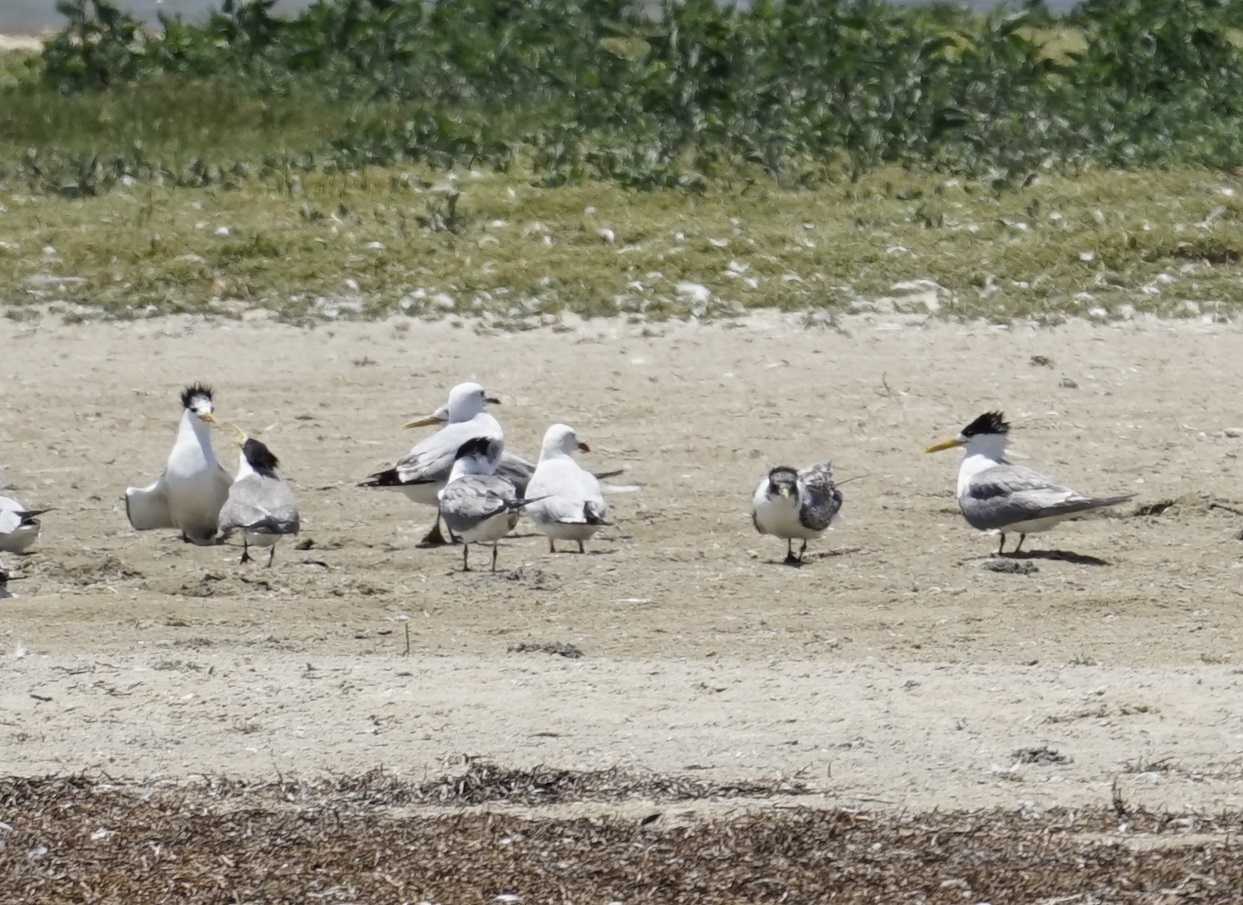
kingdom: Animalia
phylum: Chordata
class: Aves
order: Charadriiformes
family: Laridae
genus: Thalasseus
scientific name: Thalasseus bergii
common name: Greater crested tern
